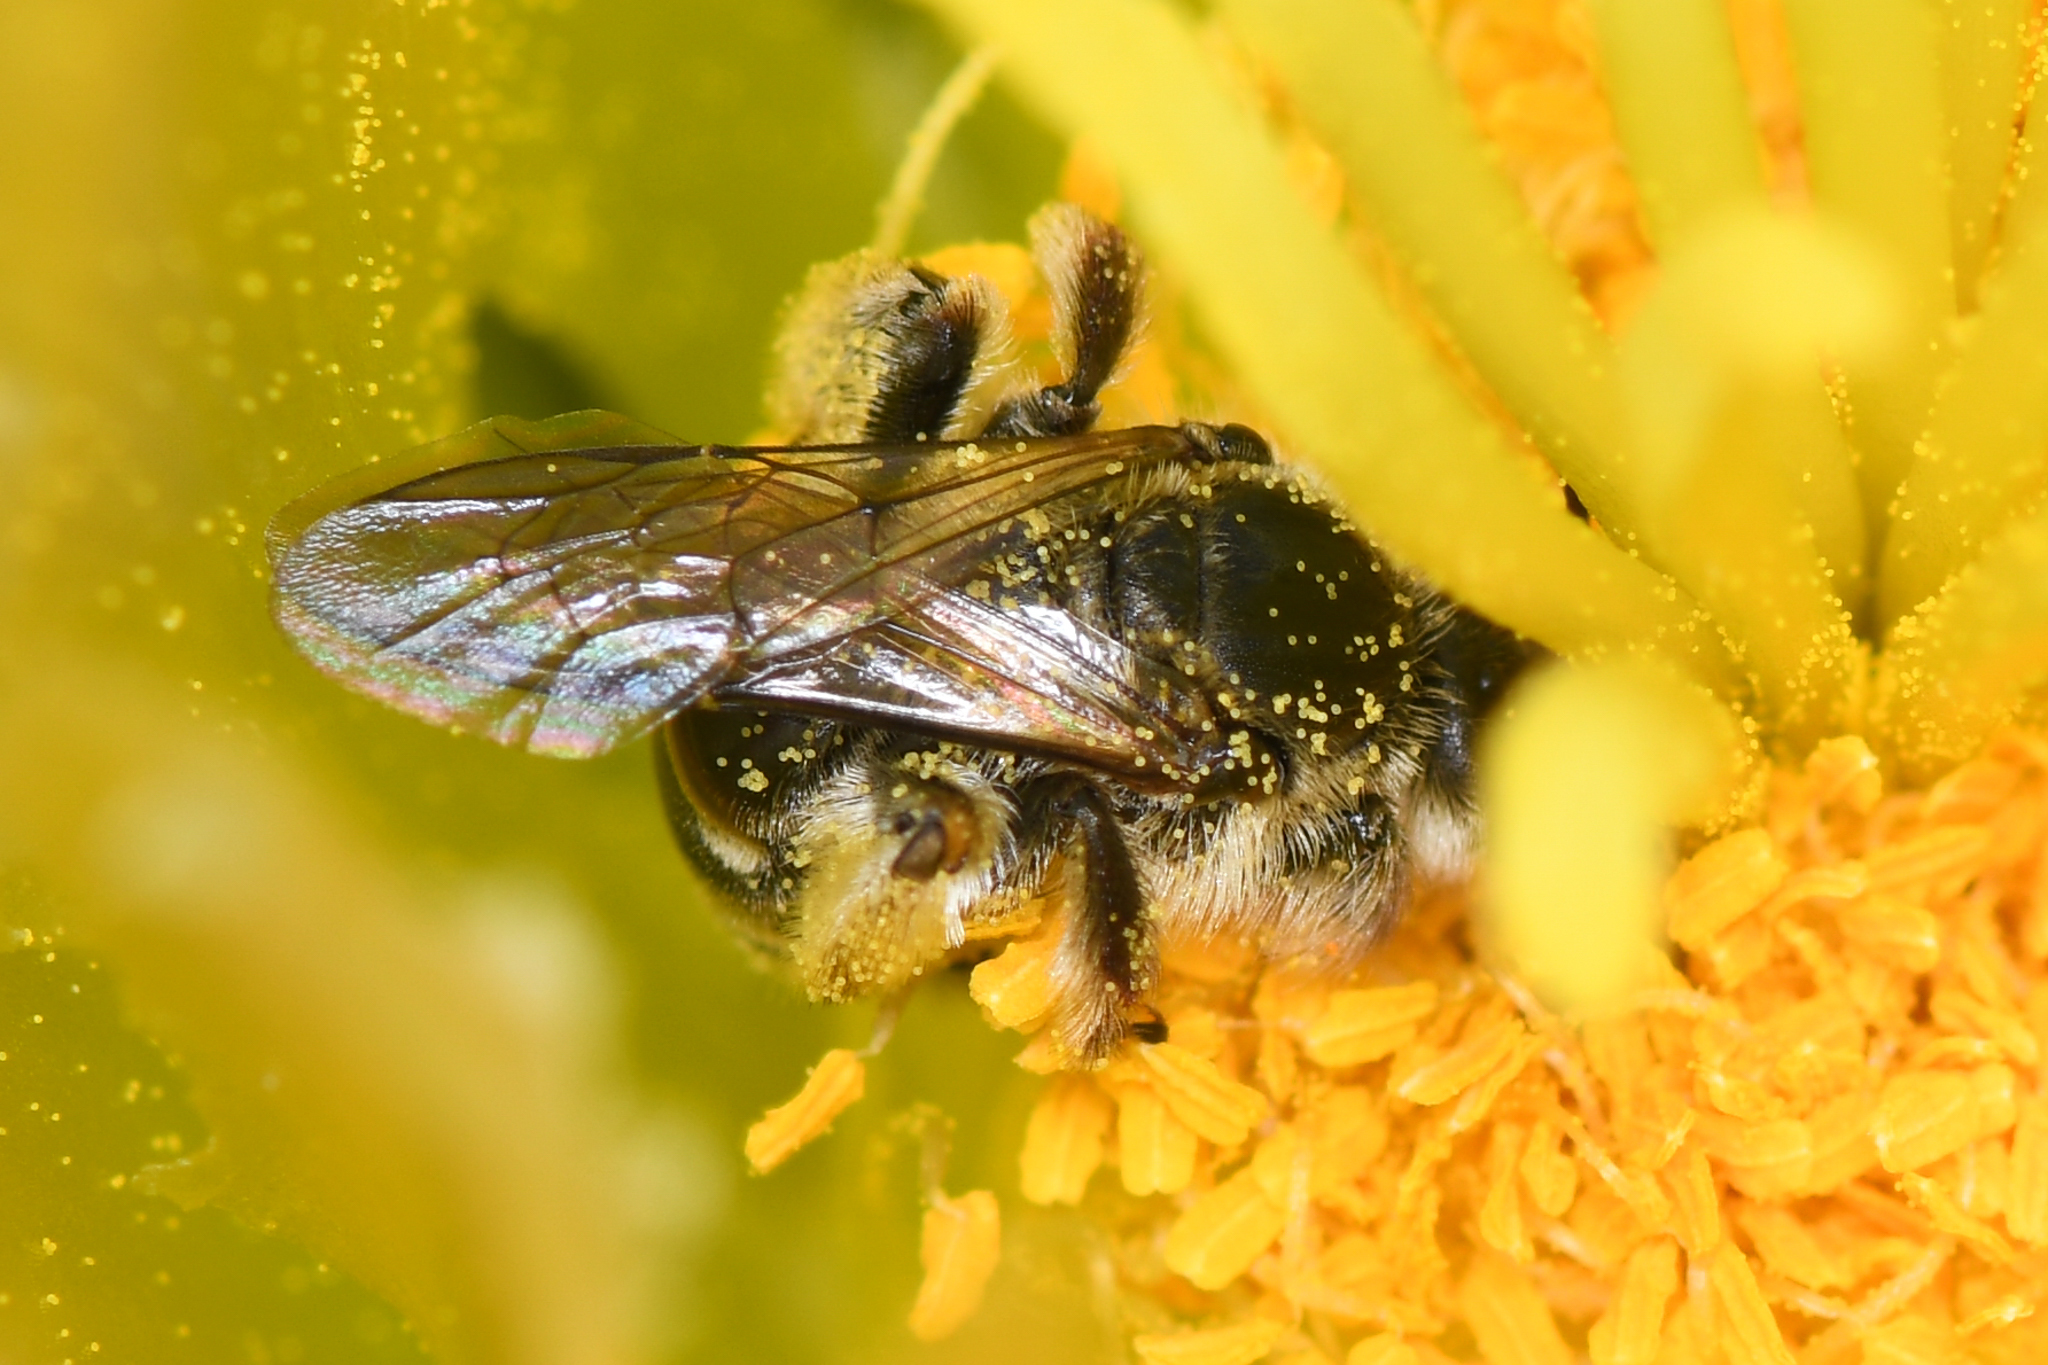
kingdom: Animalia
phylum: Arthropoda
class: Insecta
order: Hymenoptera
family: Halictidae
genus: Dufourea
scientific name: Dufourea echinocacti
